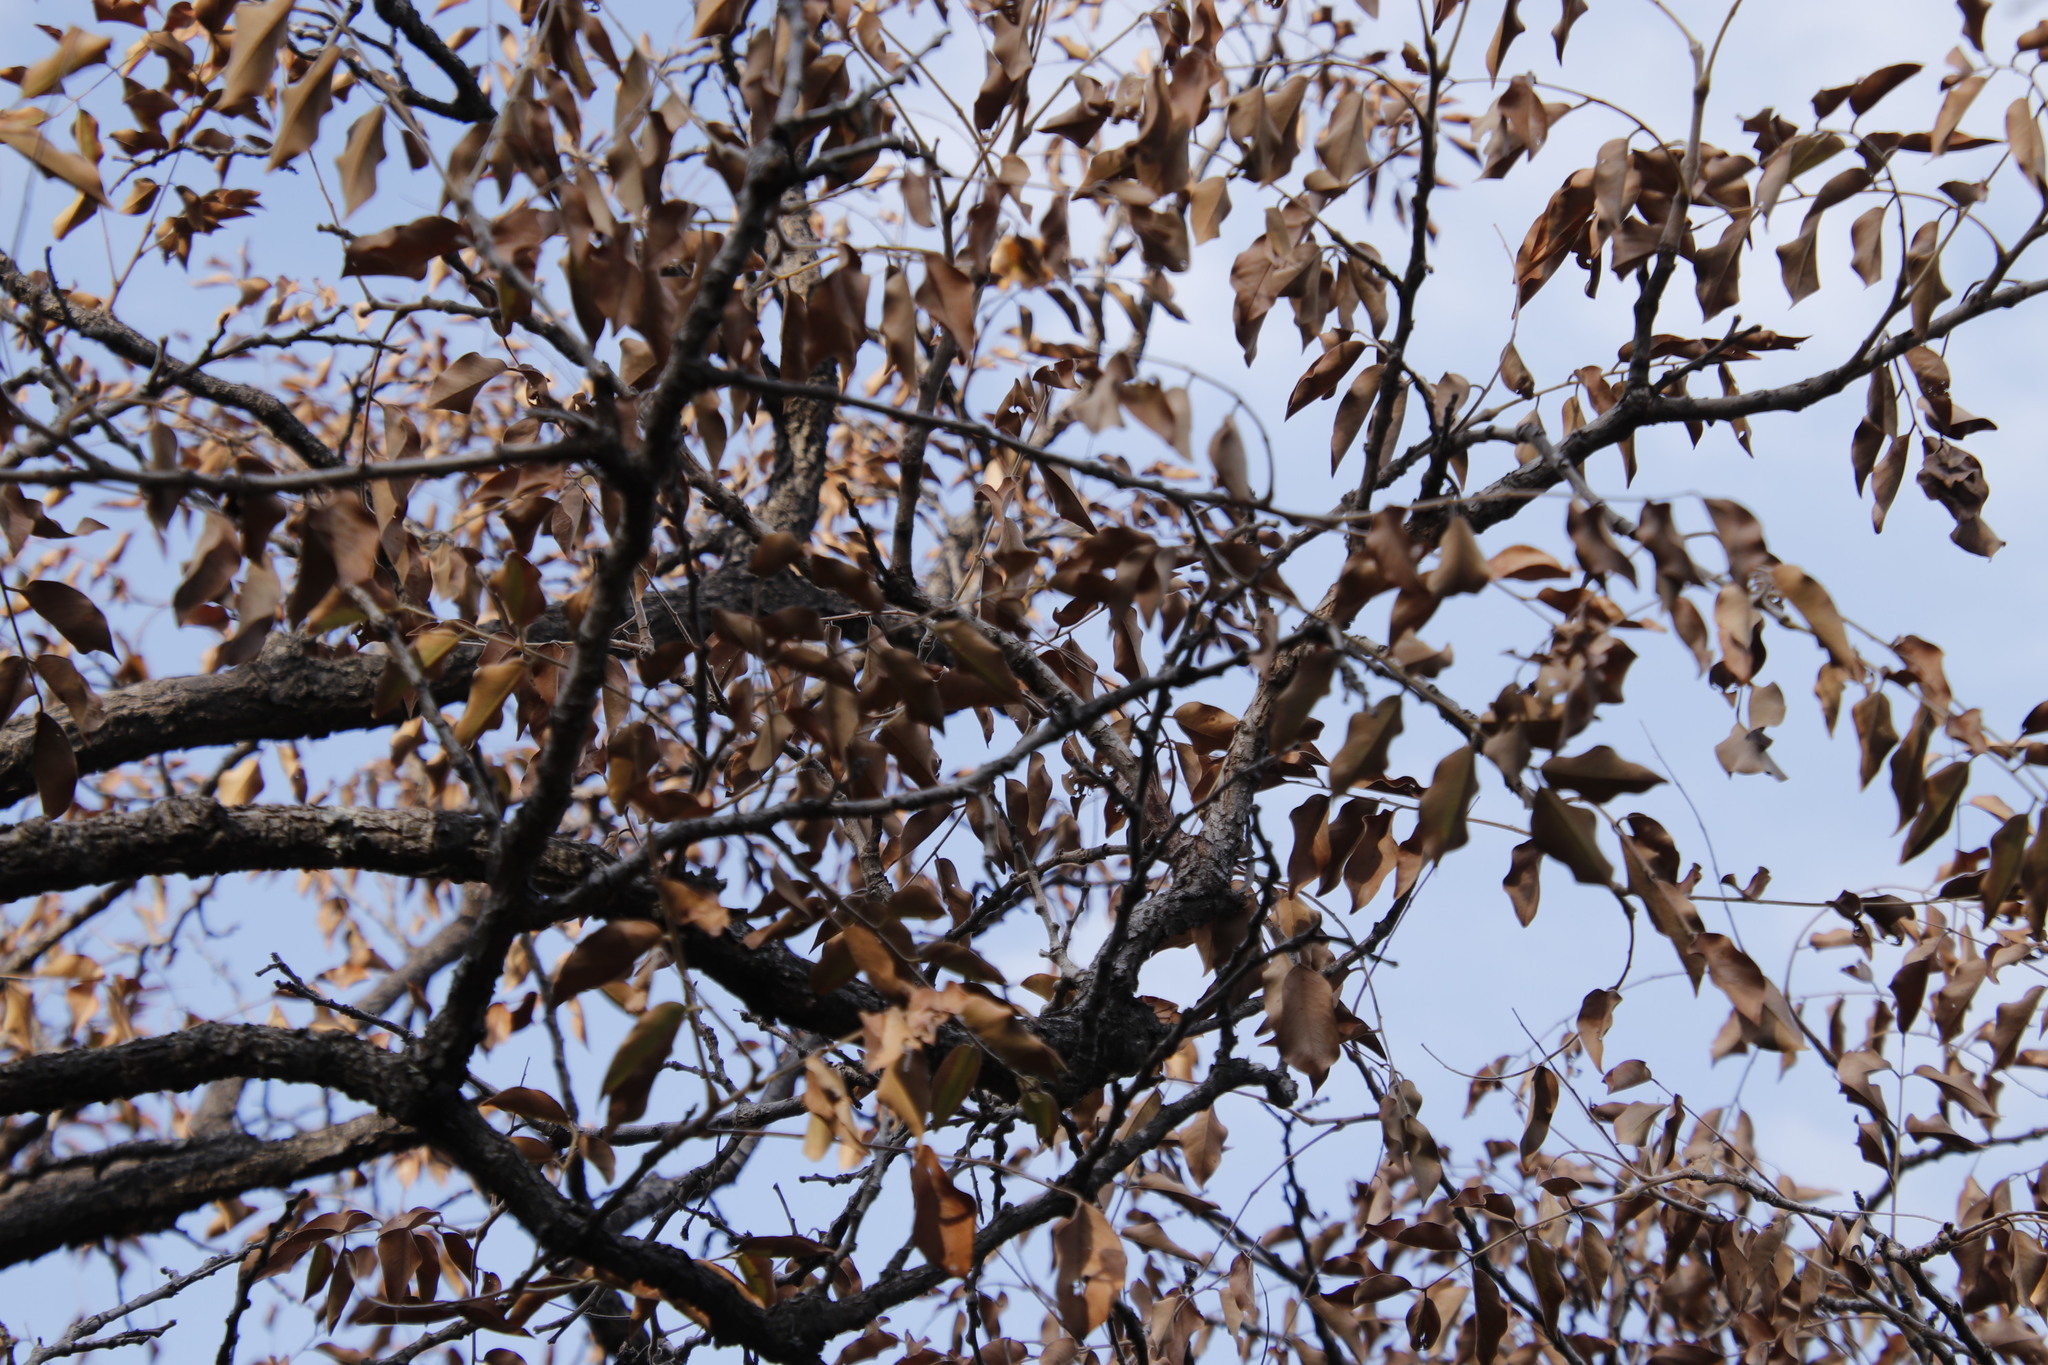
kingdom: Plantae
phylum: Tracheophyta
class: Magnoliopsida
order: Fabales
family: Fabaceae
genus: Pterocarpus
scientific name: Pterocarpus angolensis
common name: Bloodwood tree
